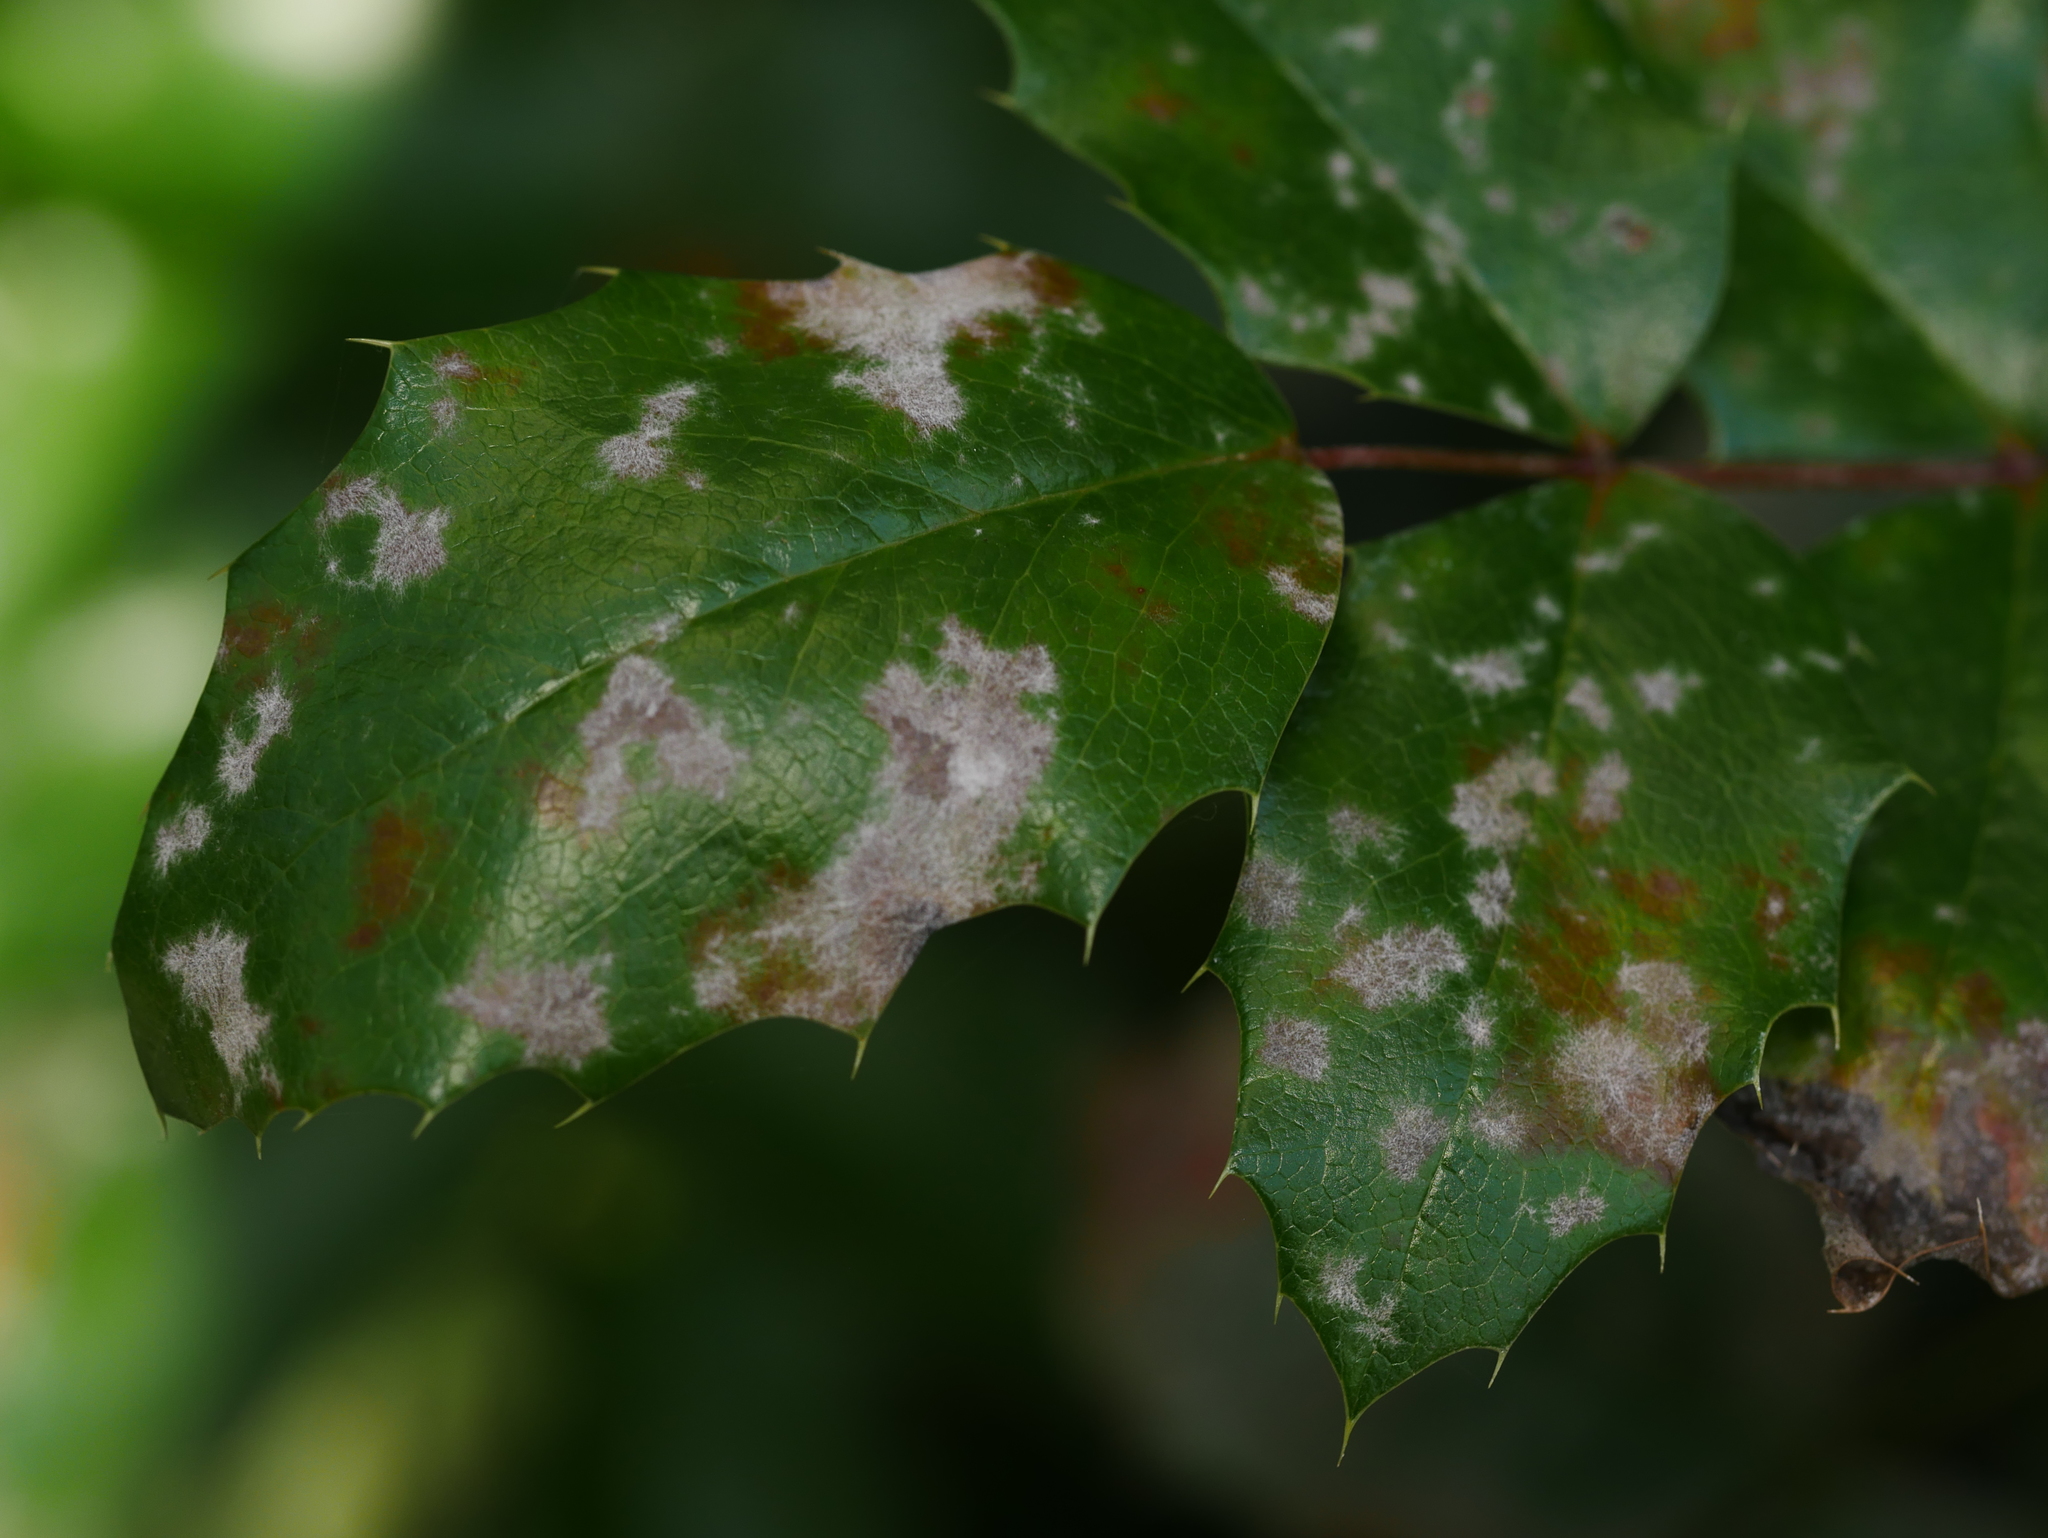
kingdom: Plantae
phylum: Tracheophyta
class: Magnoliopsida
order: Ranunculales
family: Berberidaceae
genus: Mahonia
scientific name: Mahonia aquifolium
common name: Oregon-grape
